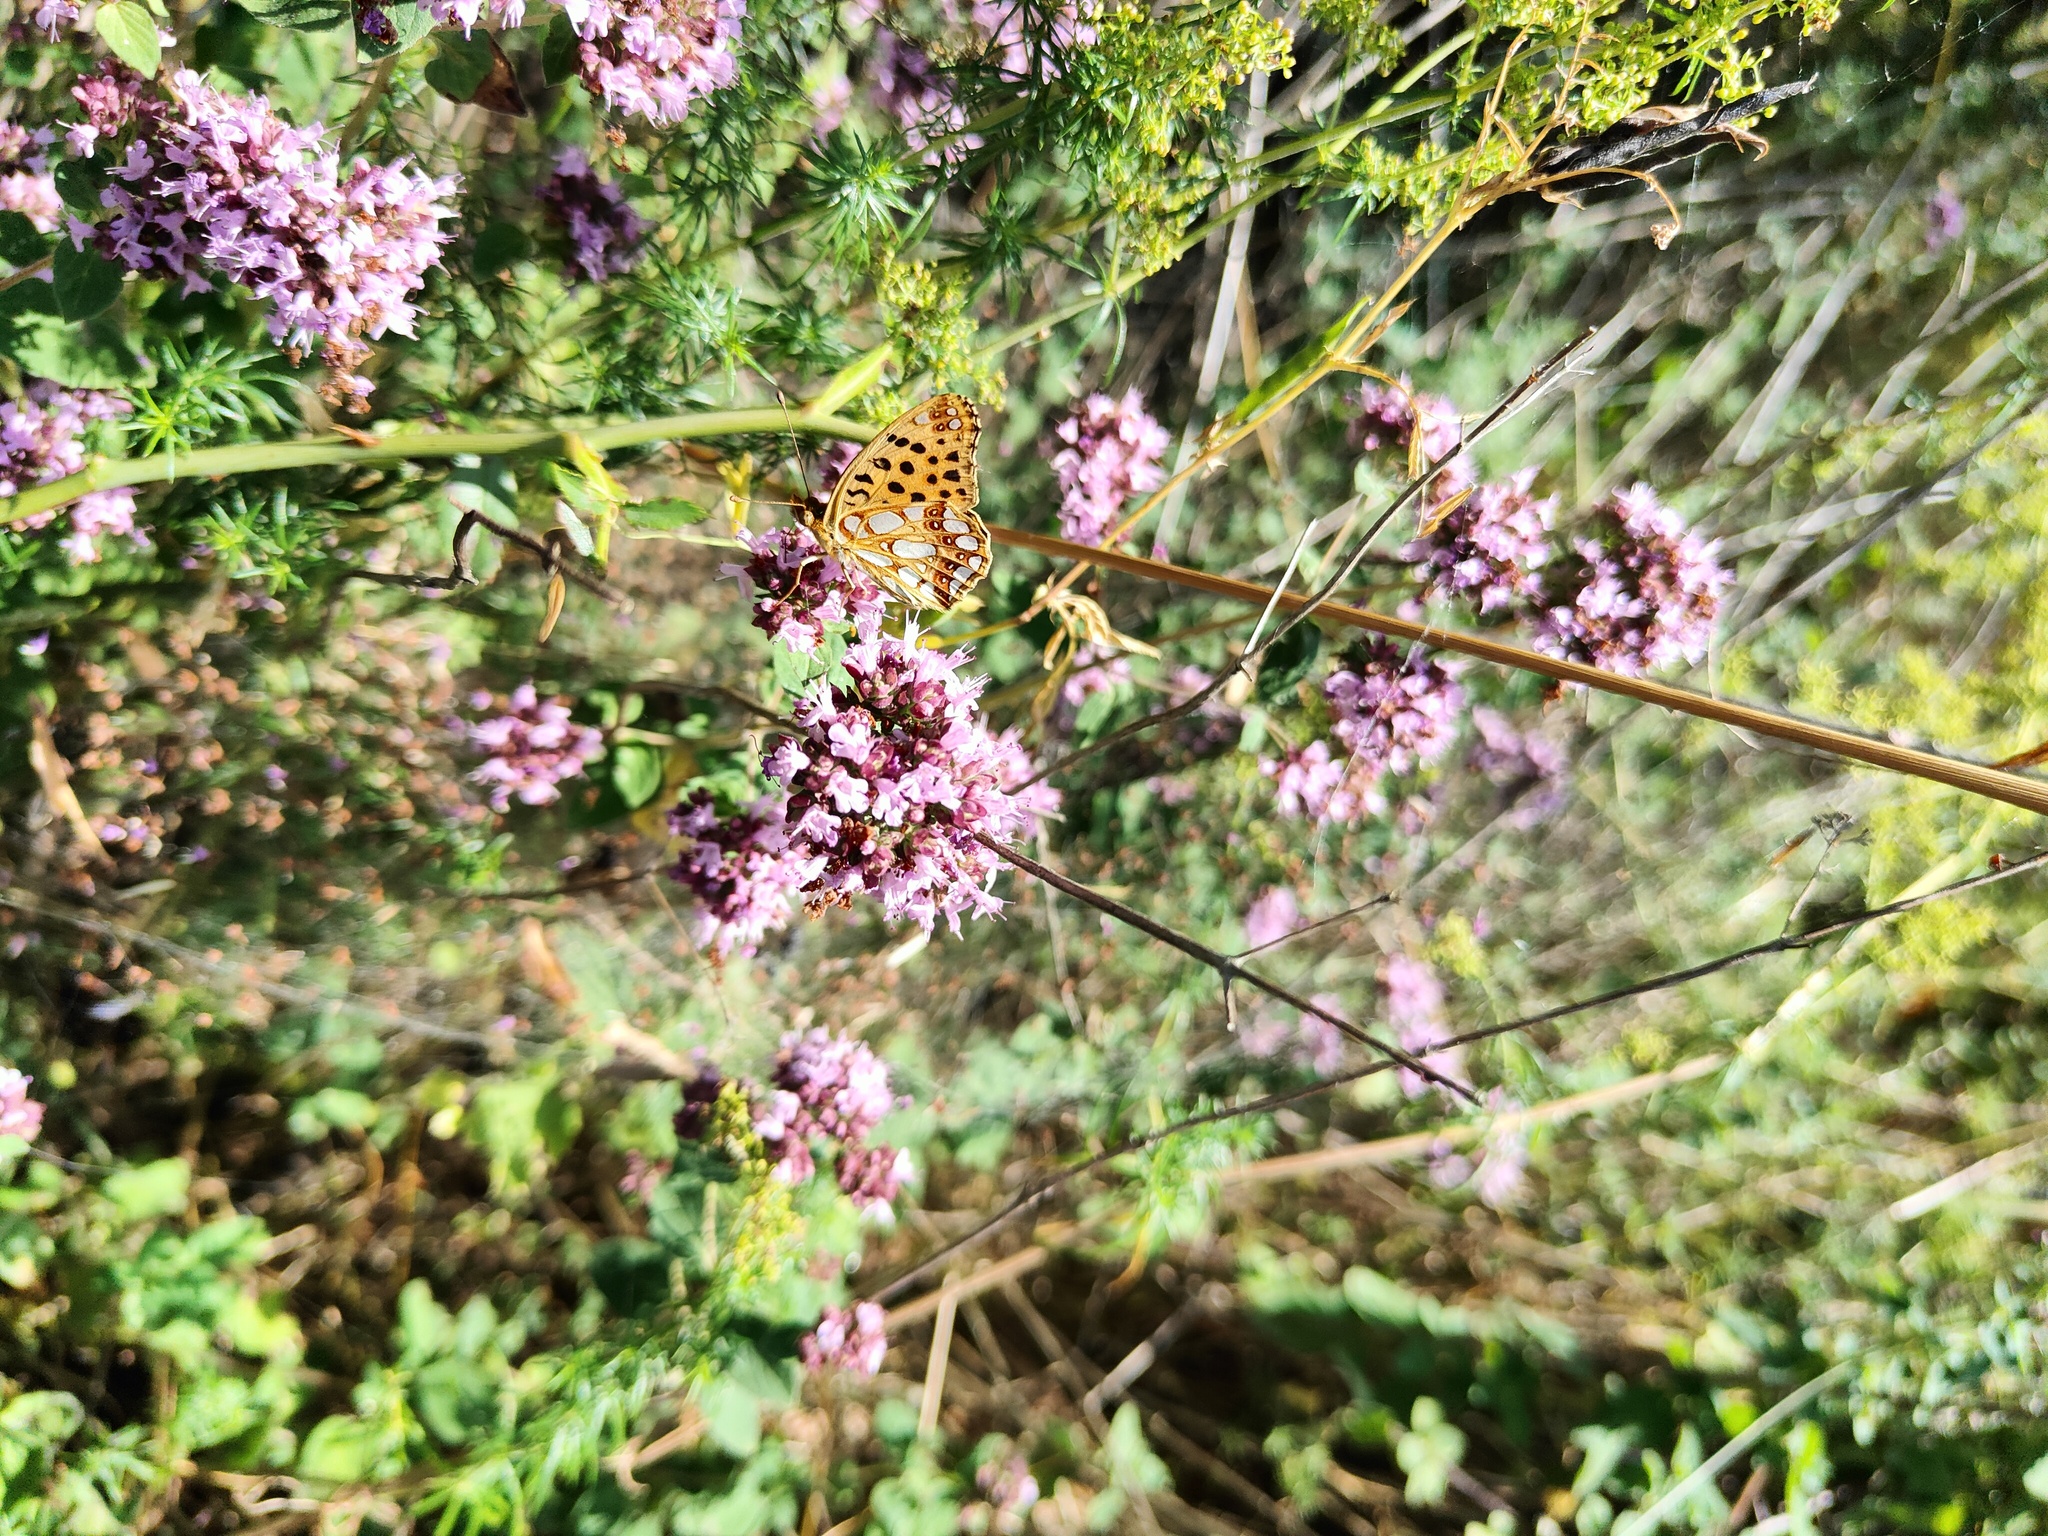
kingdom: Animalia
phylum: Arthropoda
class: Insecta
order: Lepidoptera
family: Nymphalidae
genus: Issoria
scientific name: Issoria lathonia
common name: Queen of spain fritillary
